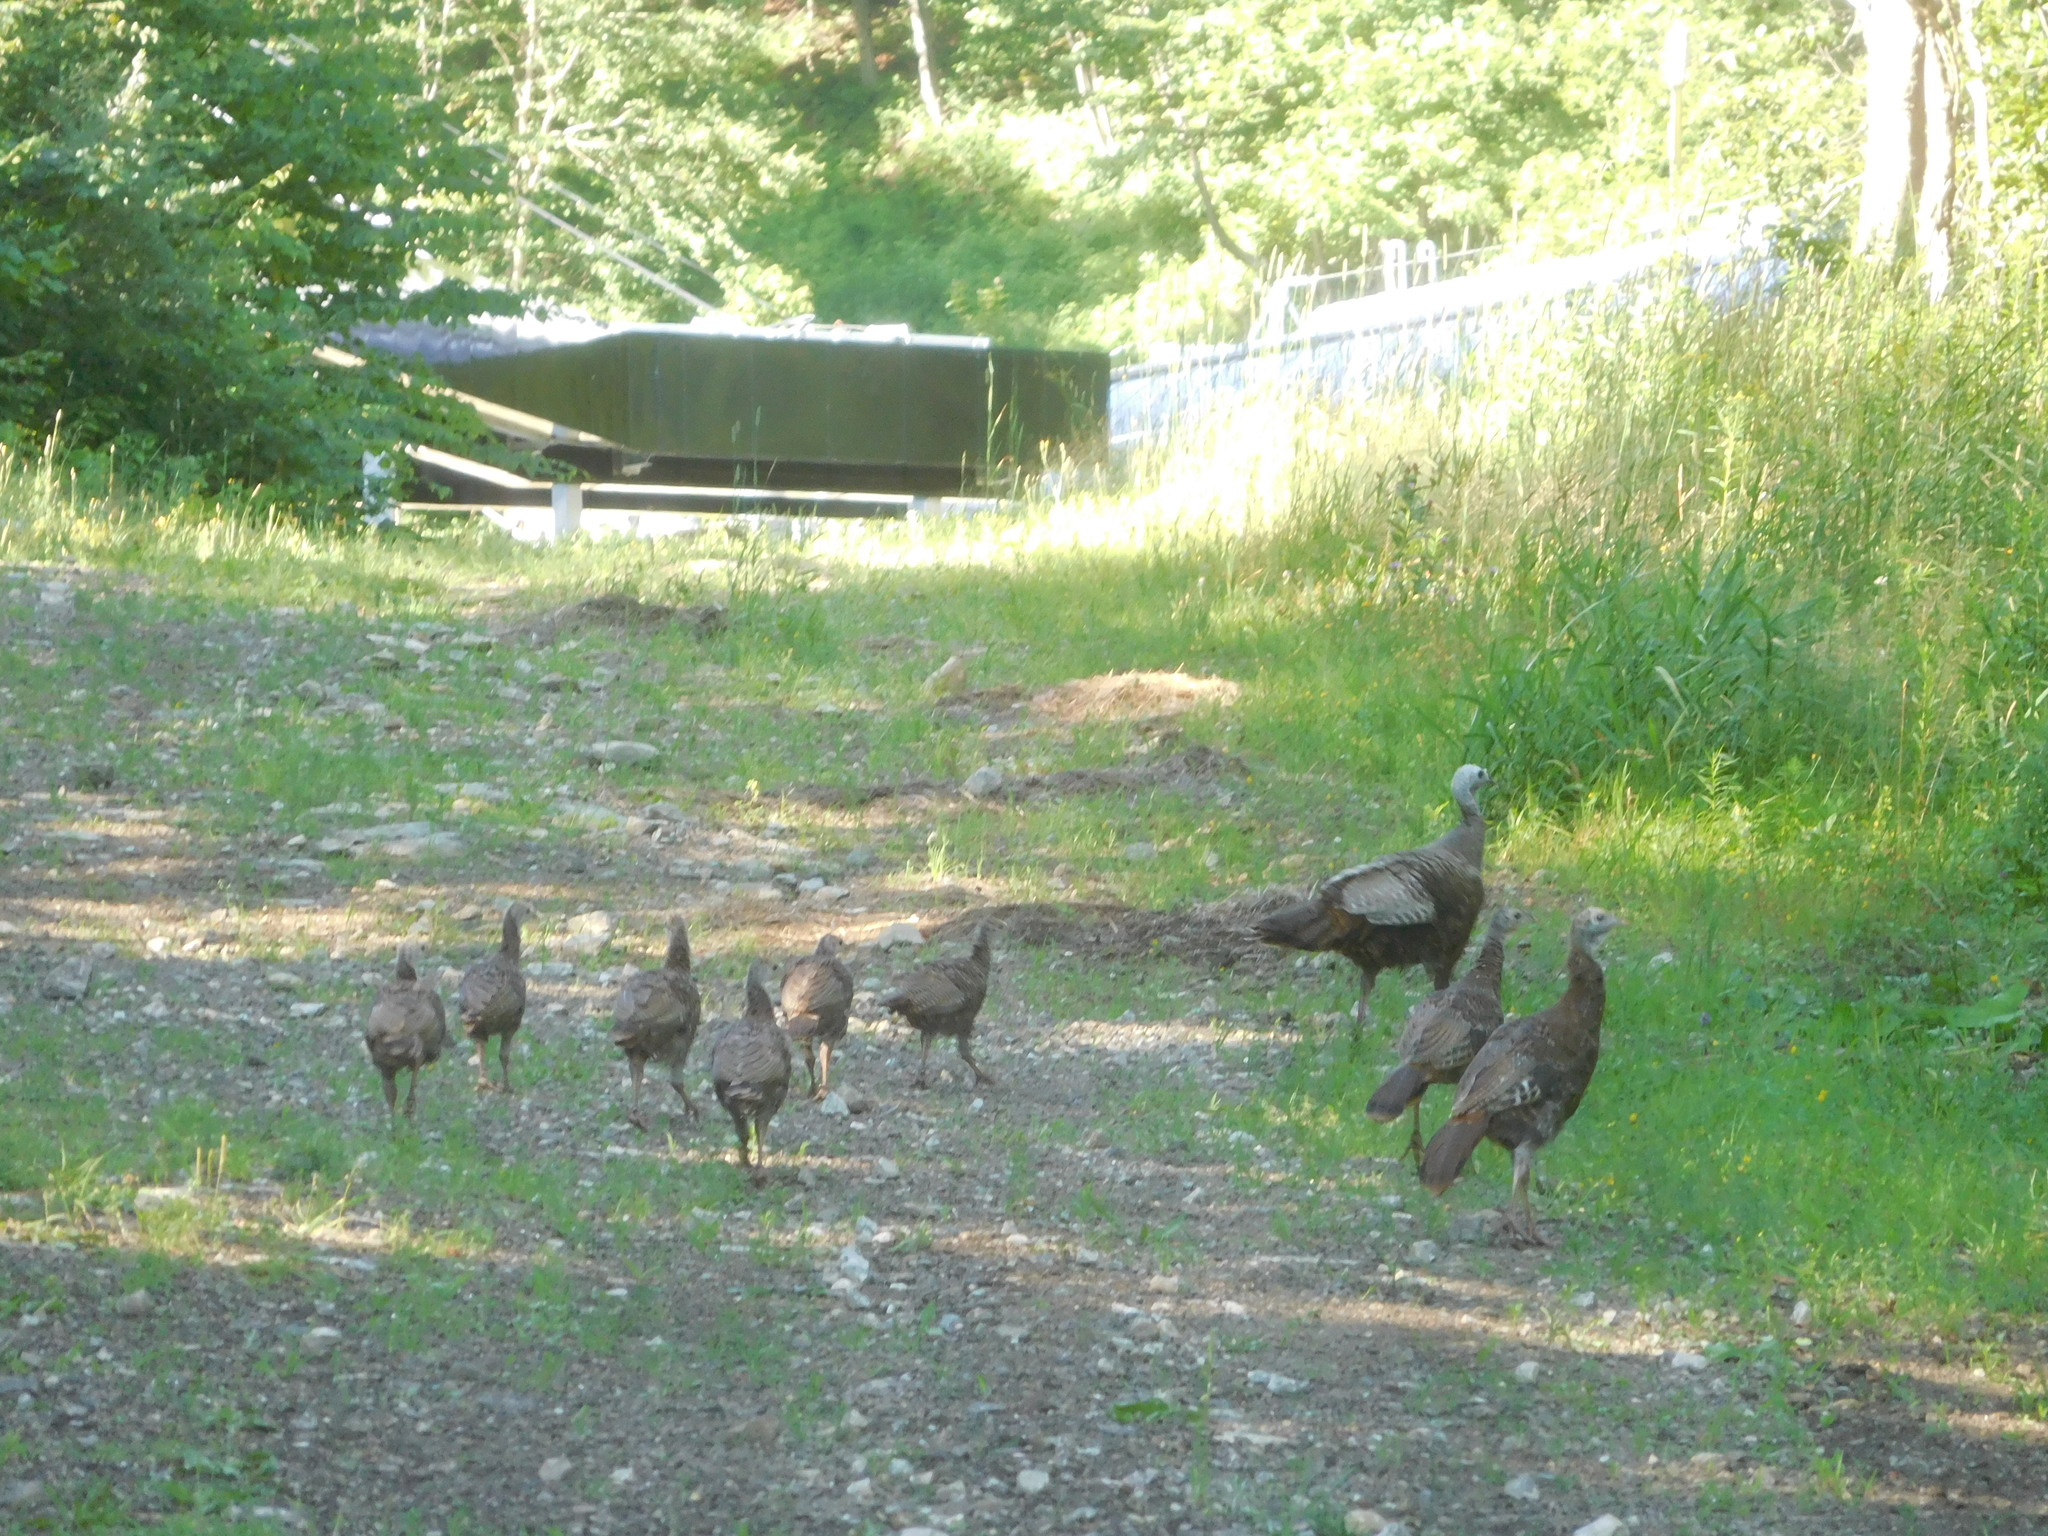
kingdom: Animalia
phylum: Chordata
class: Aves
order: Galliformes
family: Phasianidae
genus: Meleagris
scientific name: Meleagris gallopavo
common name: Wild turkey
